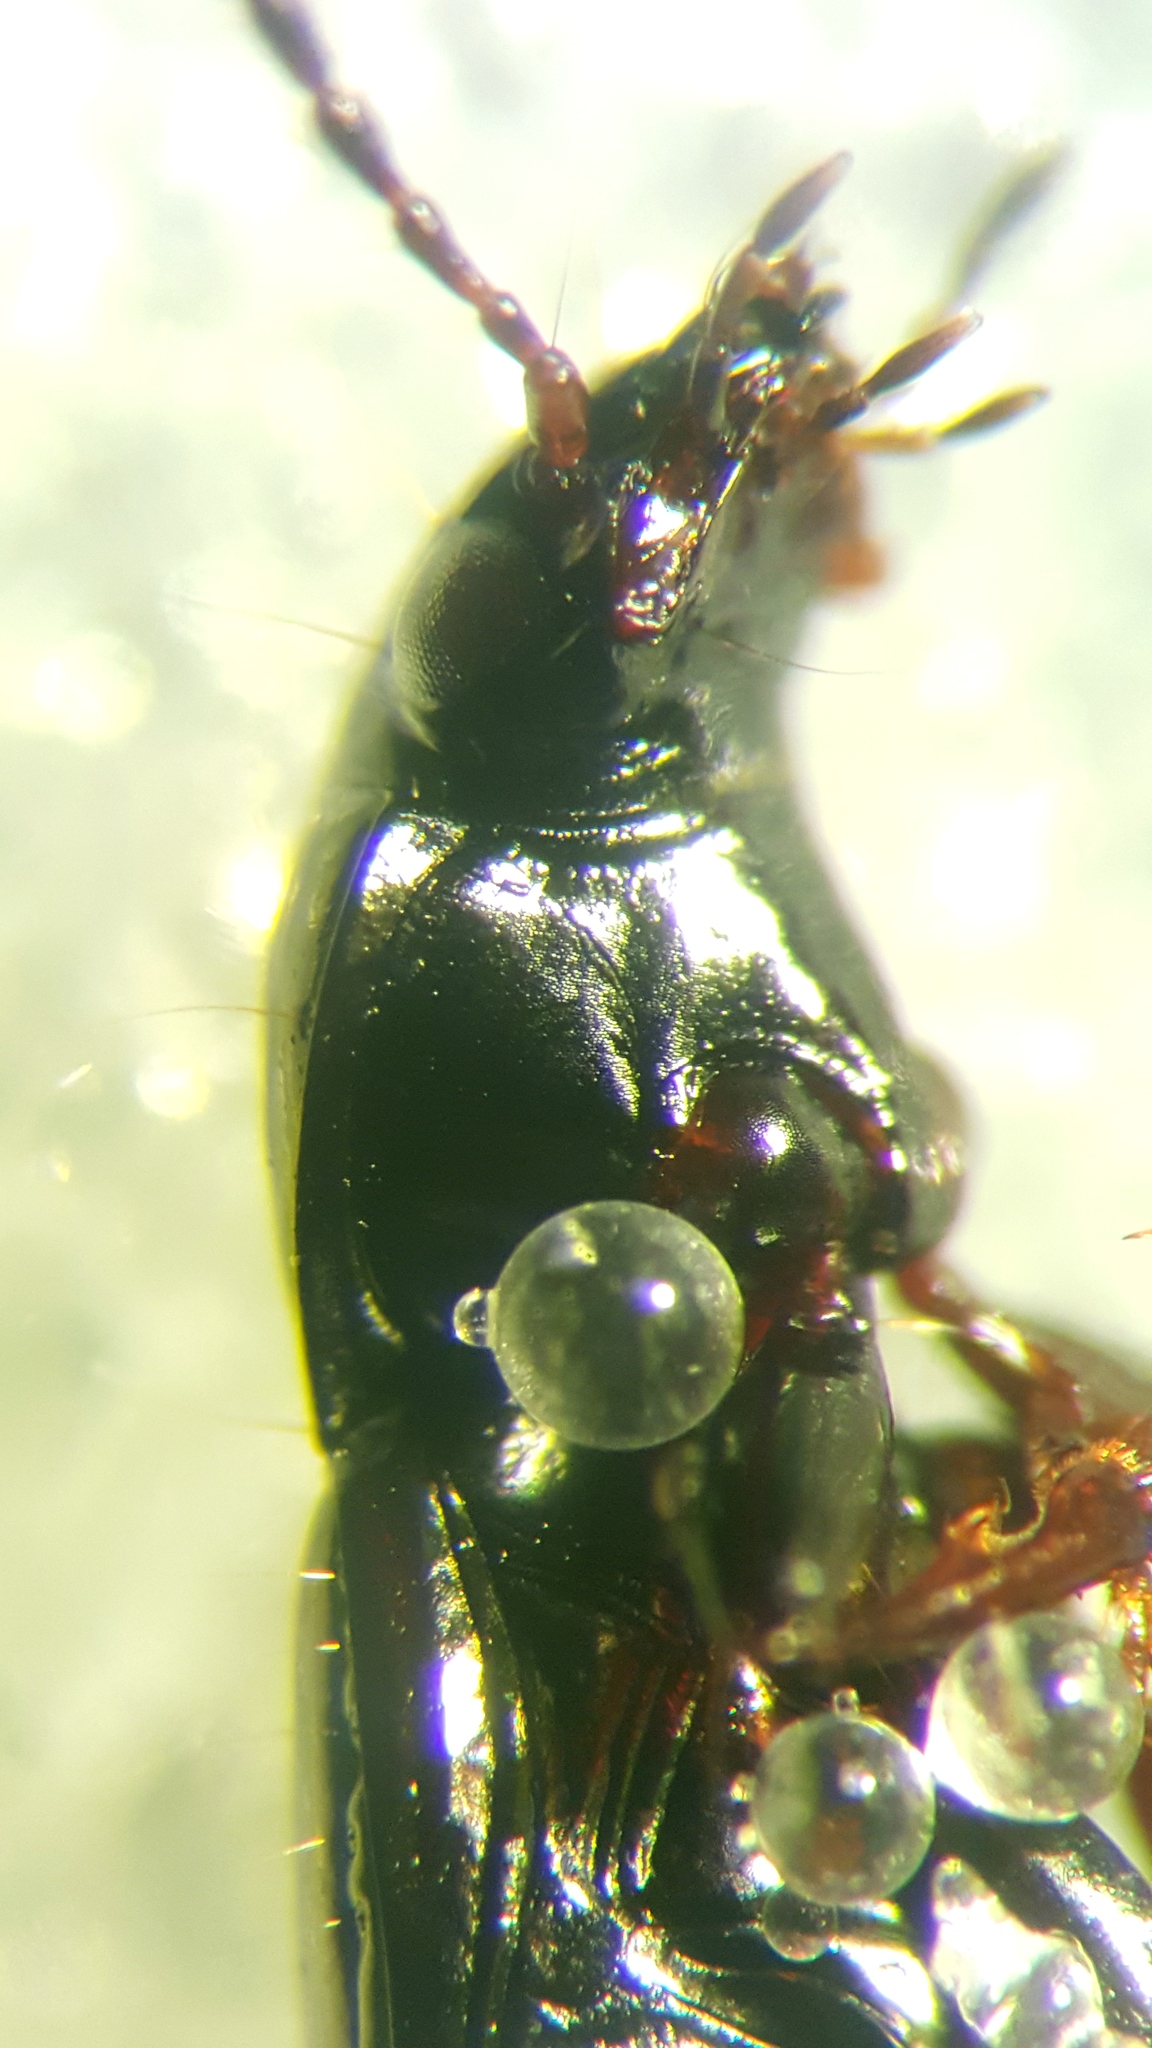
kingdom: Animalia
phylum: Arthropoda
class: Insecta
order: Coleoptera
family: Carabidae
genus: Pterostichus
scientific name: Pterostichus diligens
